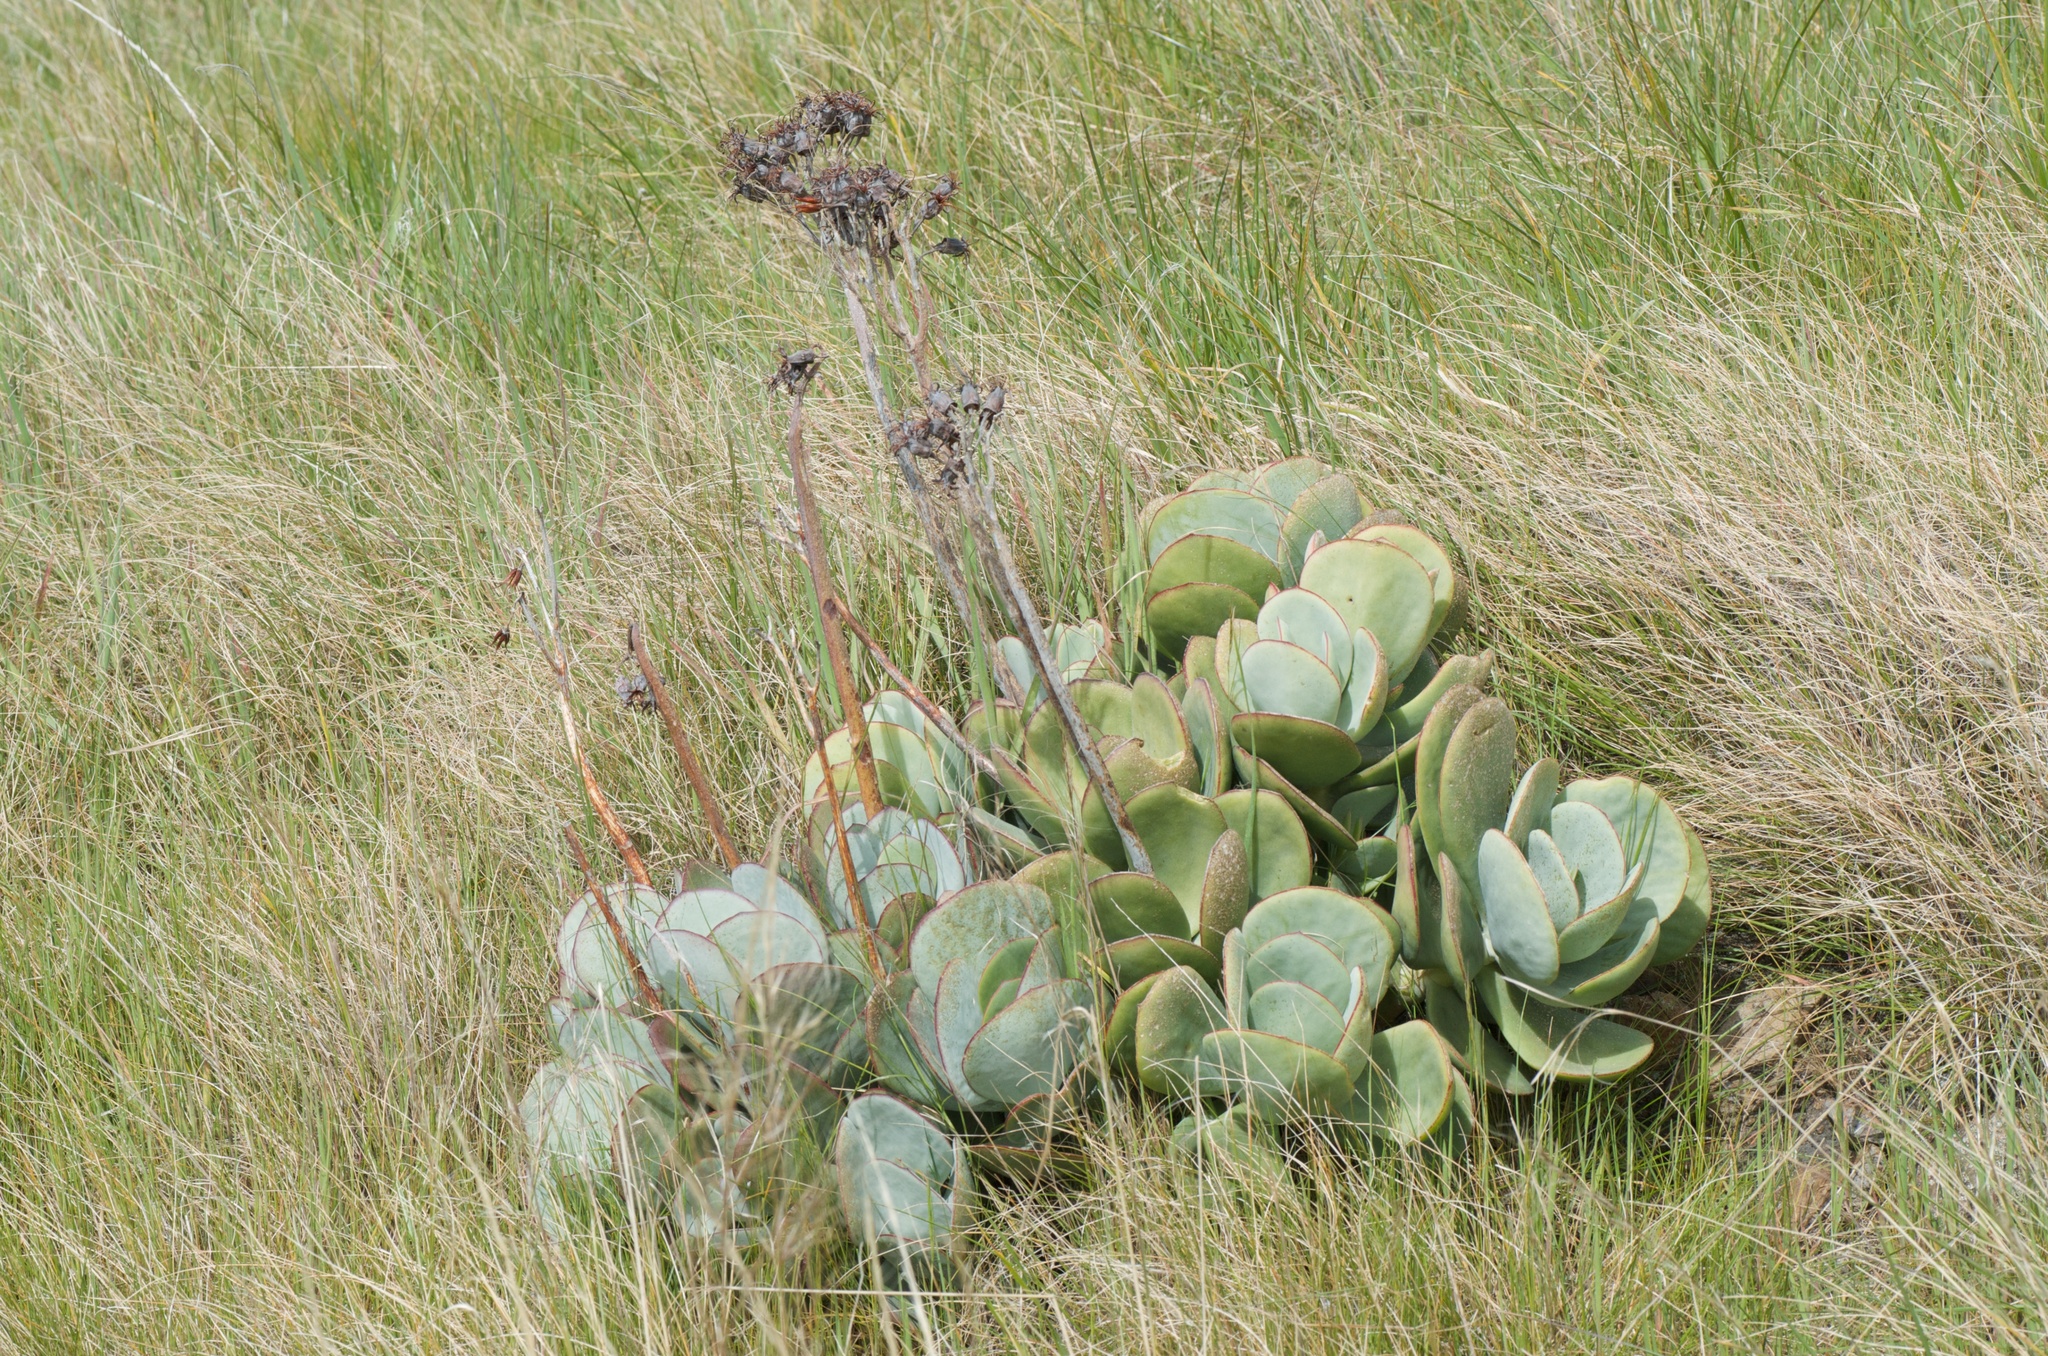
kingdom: Plantae
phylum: Tracheophyta
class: Magnoliopsida
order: Saxifragales
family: Crassulaceae
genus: Cotyledon
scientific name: Cotyledon orbiculata
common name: Pig's ear
